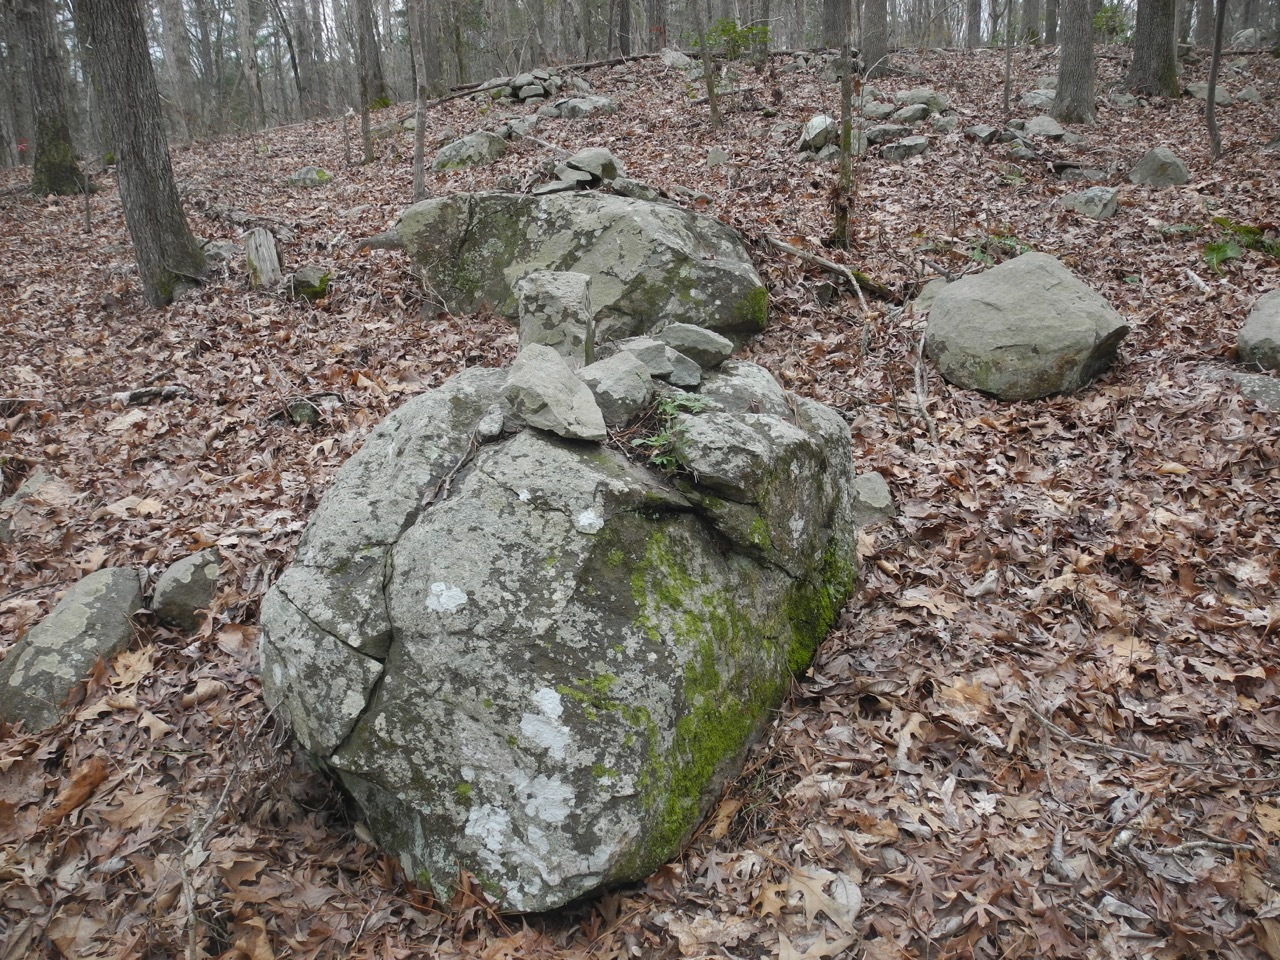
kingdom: Plantae
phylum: Tracheophyta
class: Polypodiopsida
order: Polypodiales
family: Polypodiaceae
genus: Pleopeltis
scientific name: Pleopeltis michauxiana
